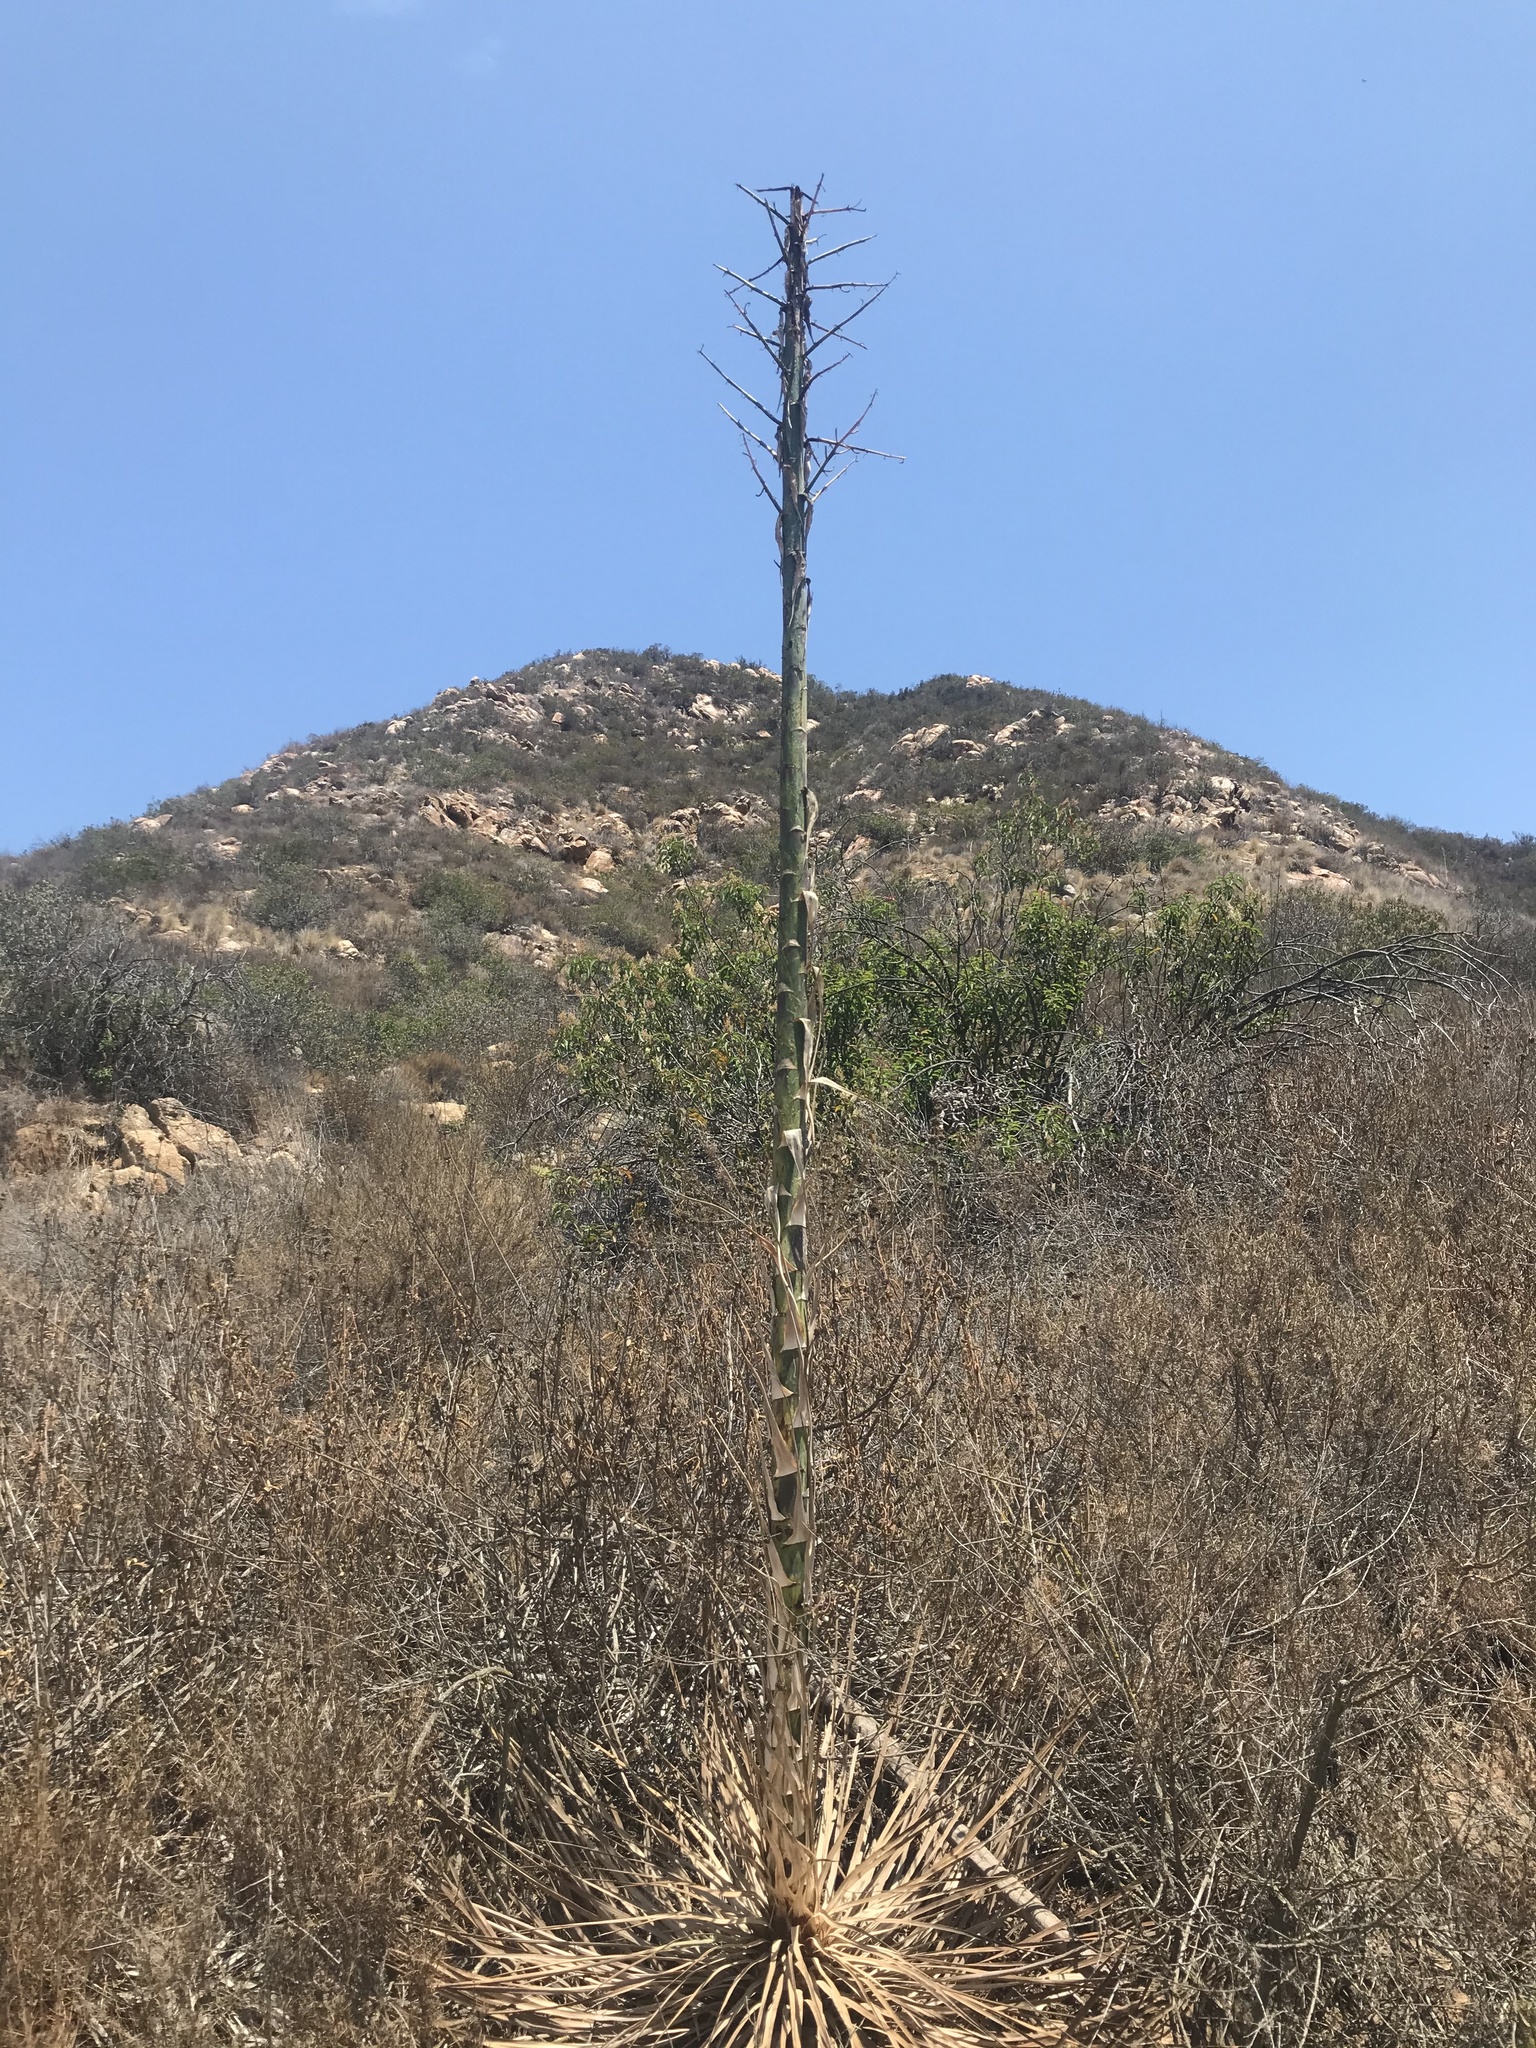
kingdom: Plantae
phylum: Tracheophyta
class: Liliopsida
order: Asparagales
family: Asparagaceae
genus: Hesperoyucca
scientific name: Hesperoyucca whipplei
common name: Our lord's-candle
